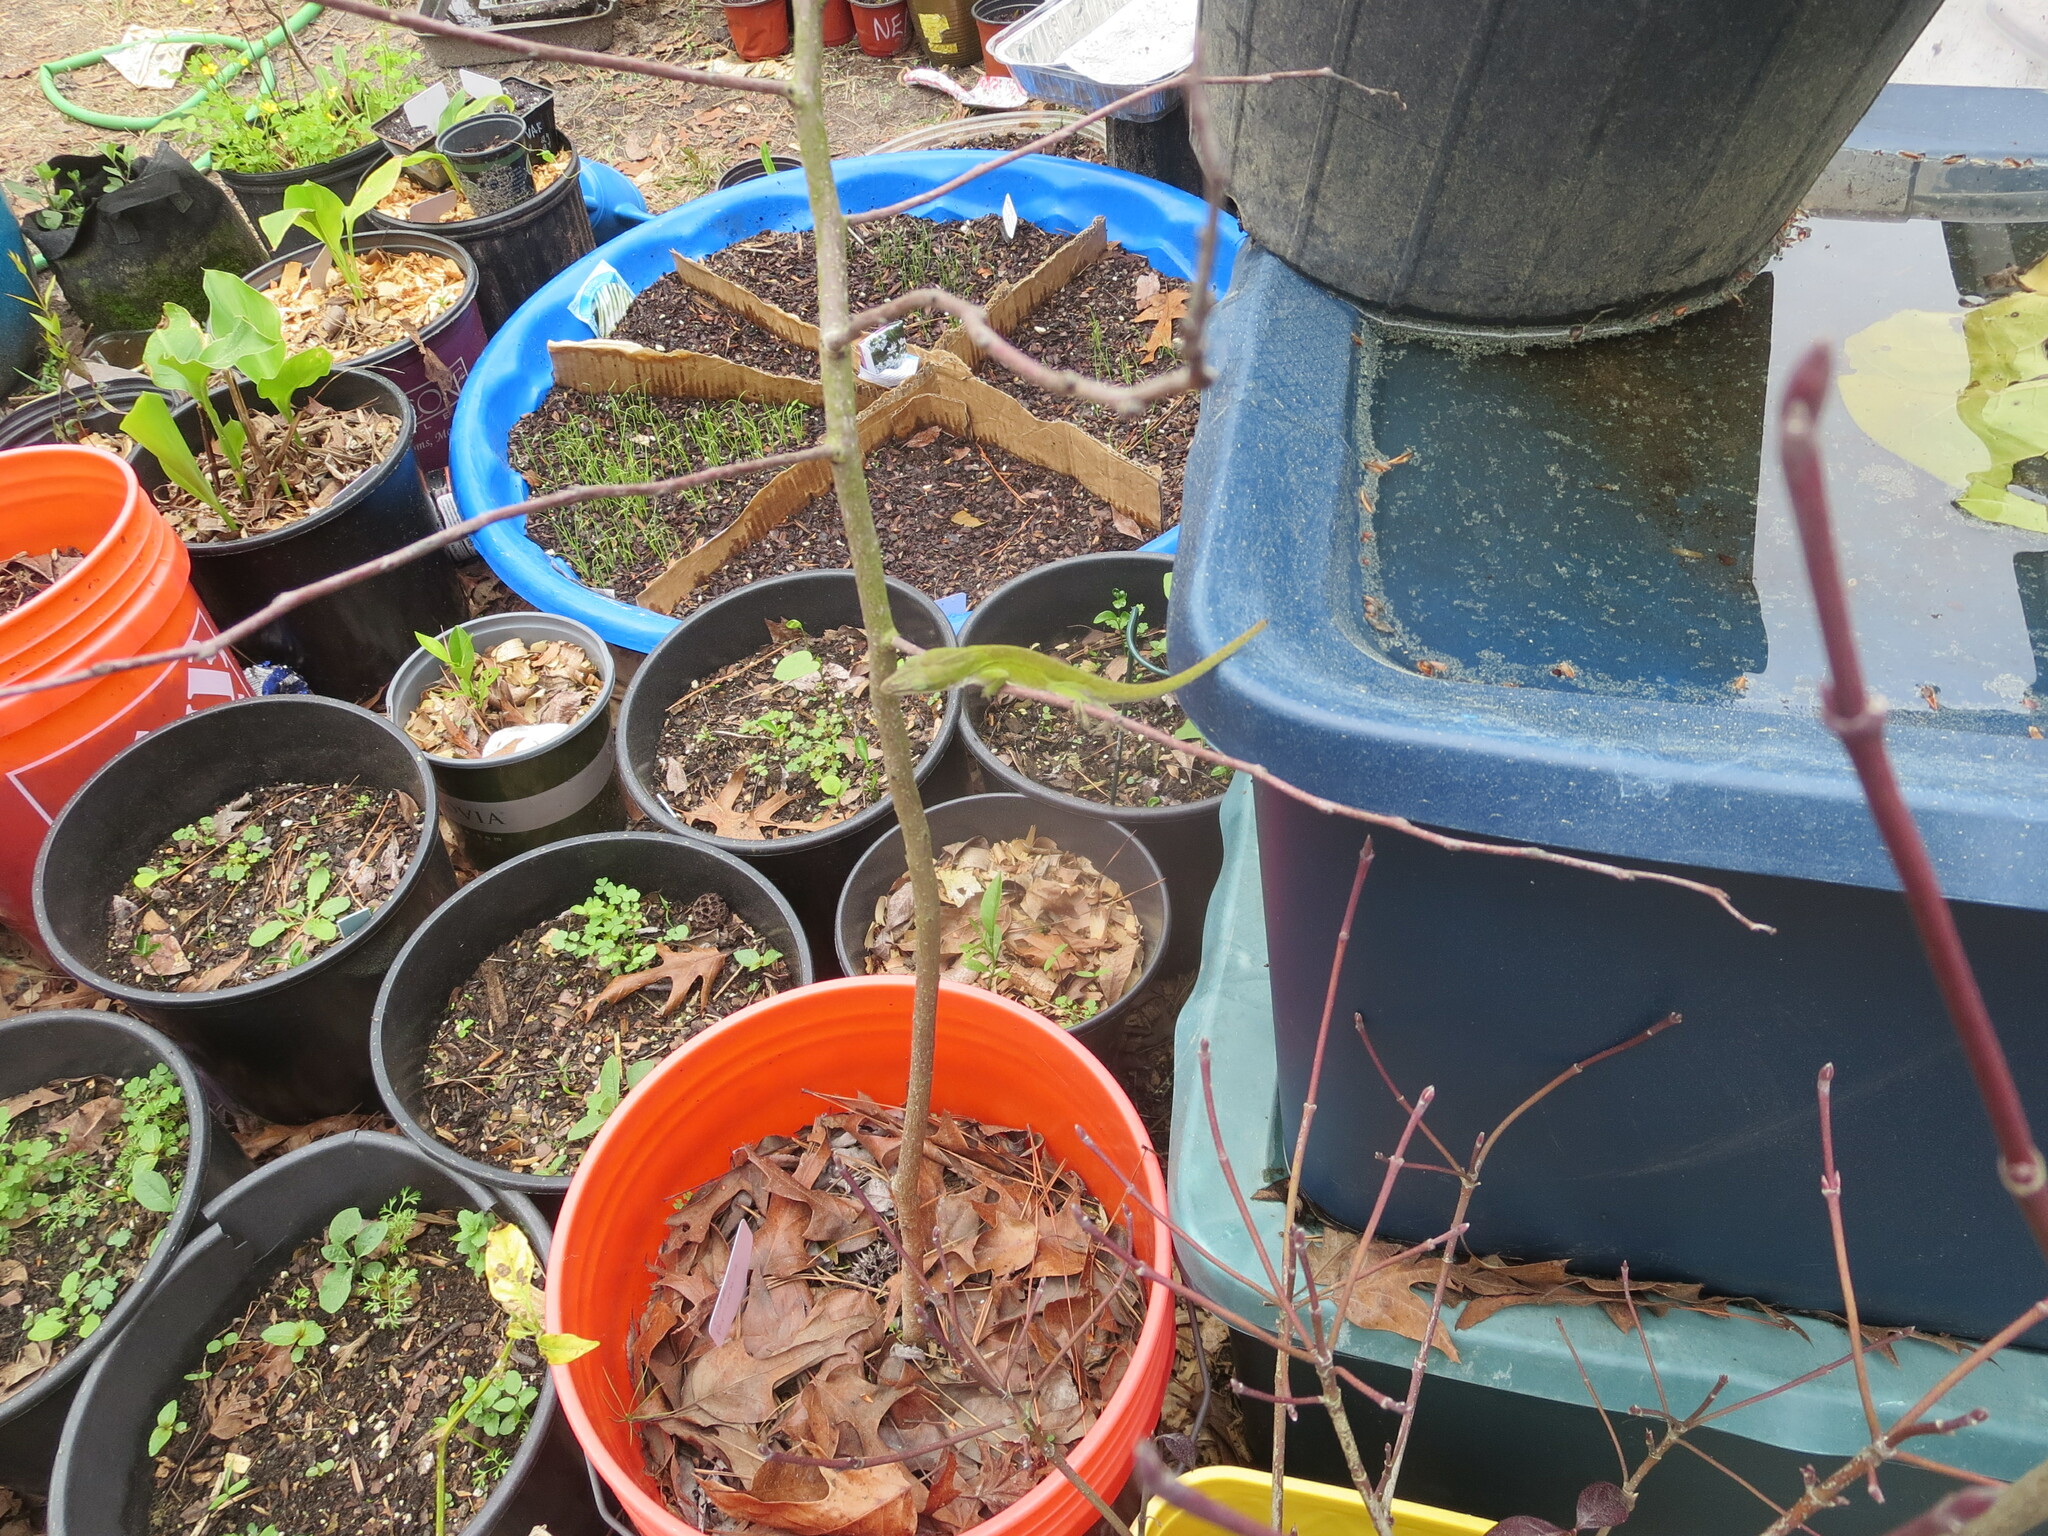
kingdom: Animalia
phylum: Chordata
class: Squamata
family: Dactyloidae
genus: Anolis
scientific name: Anolis carolinensis
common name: Green anole
